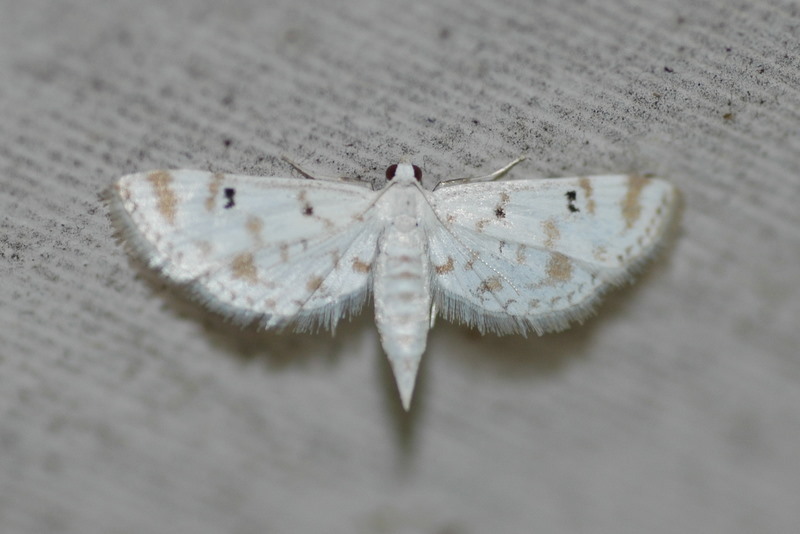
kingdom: Animalia
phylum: Arthropoda
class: Insecta
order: Lepidoptera
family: Crambidae
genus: Parapoynx
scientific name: Parapoynx stagnalis
